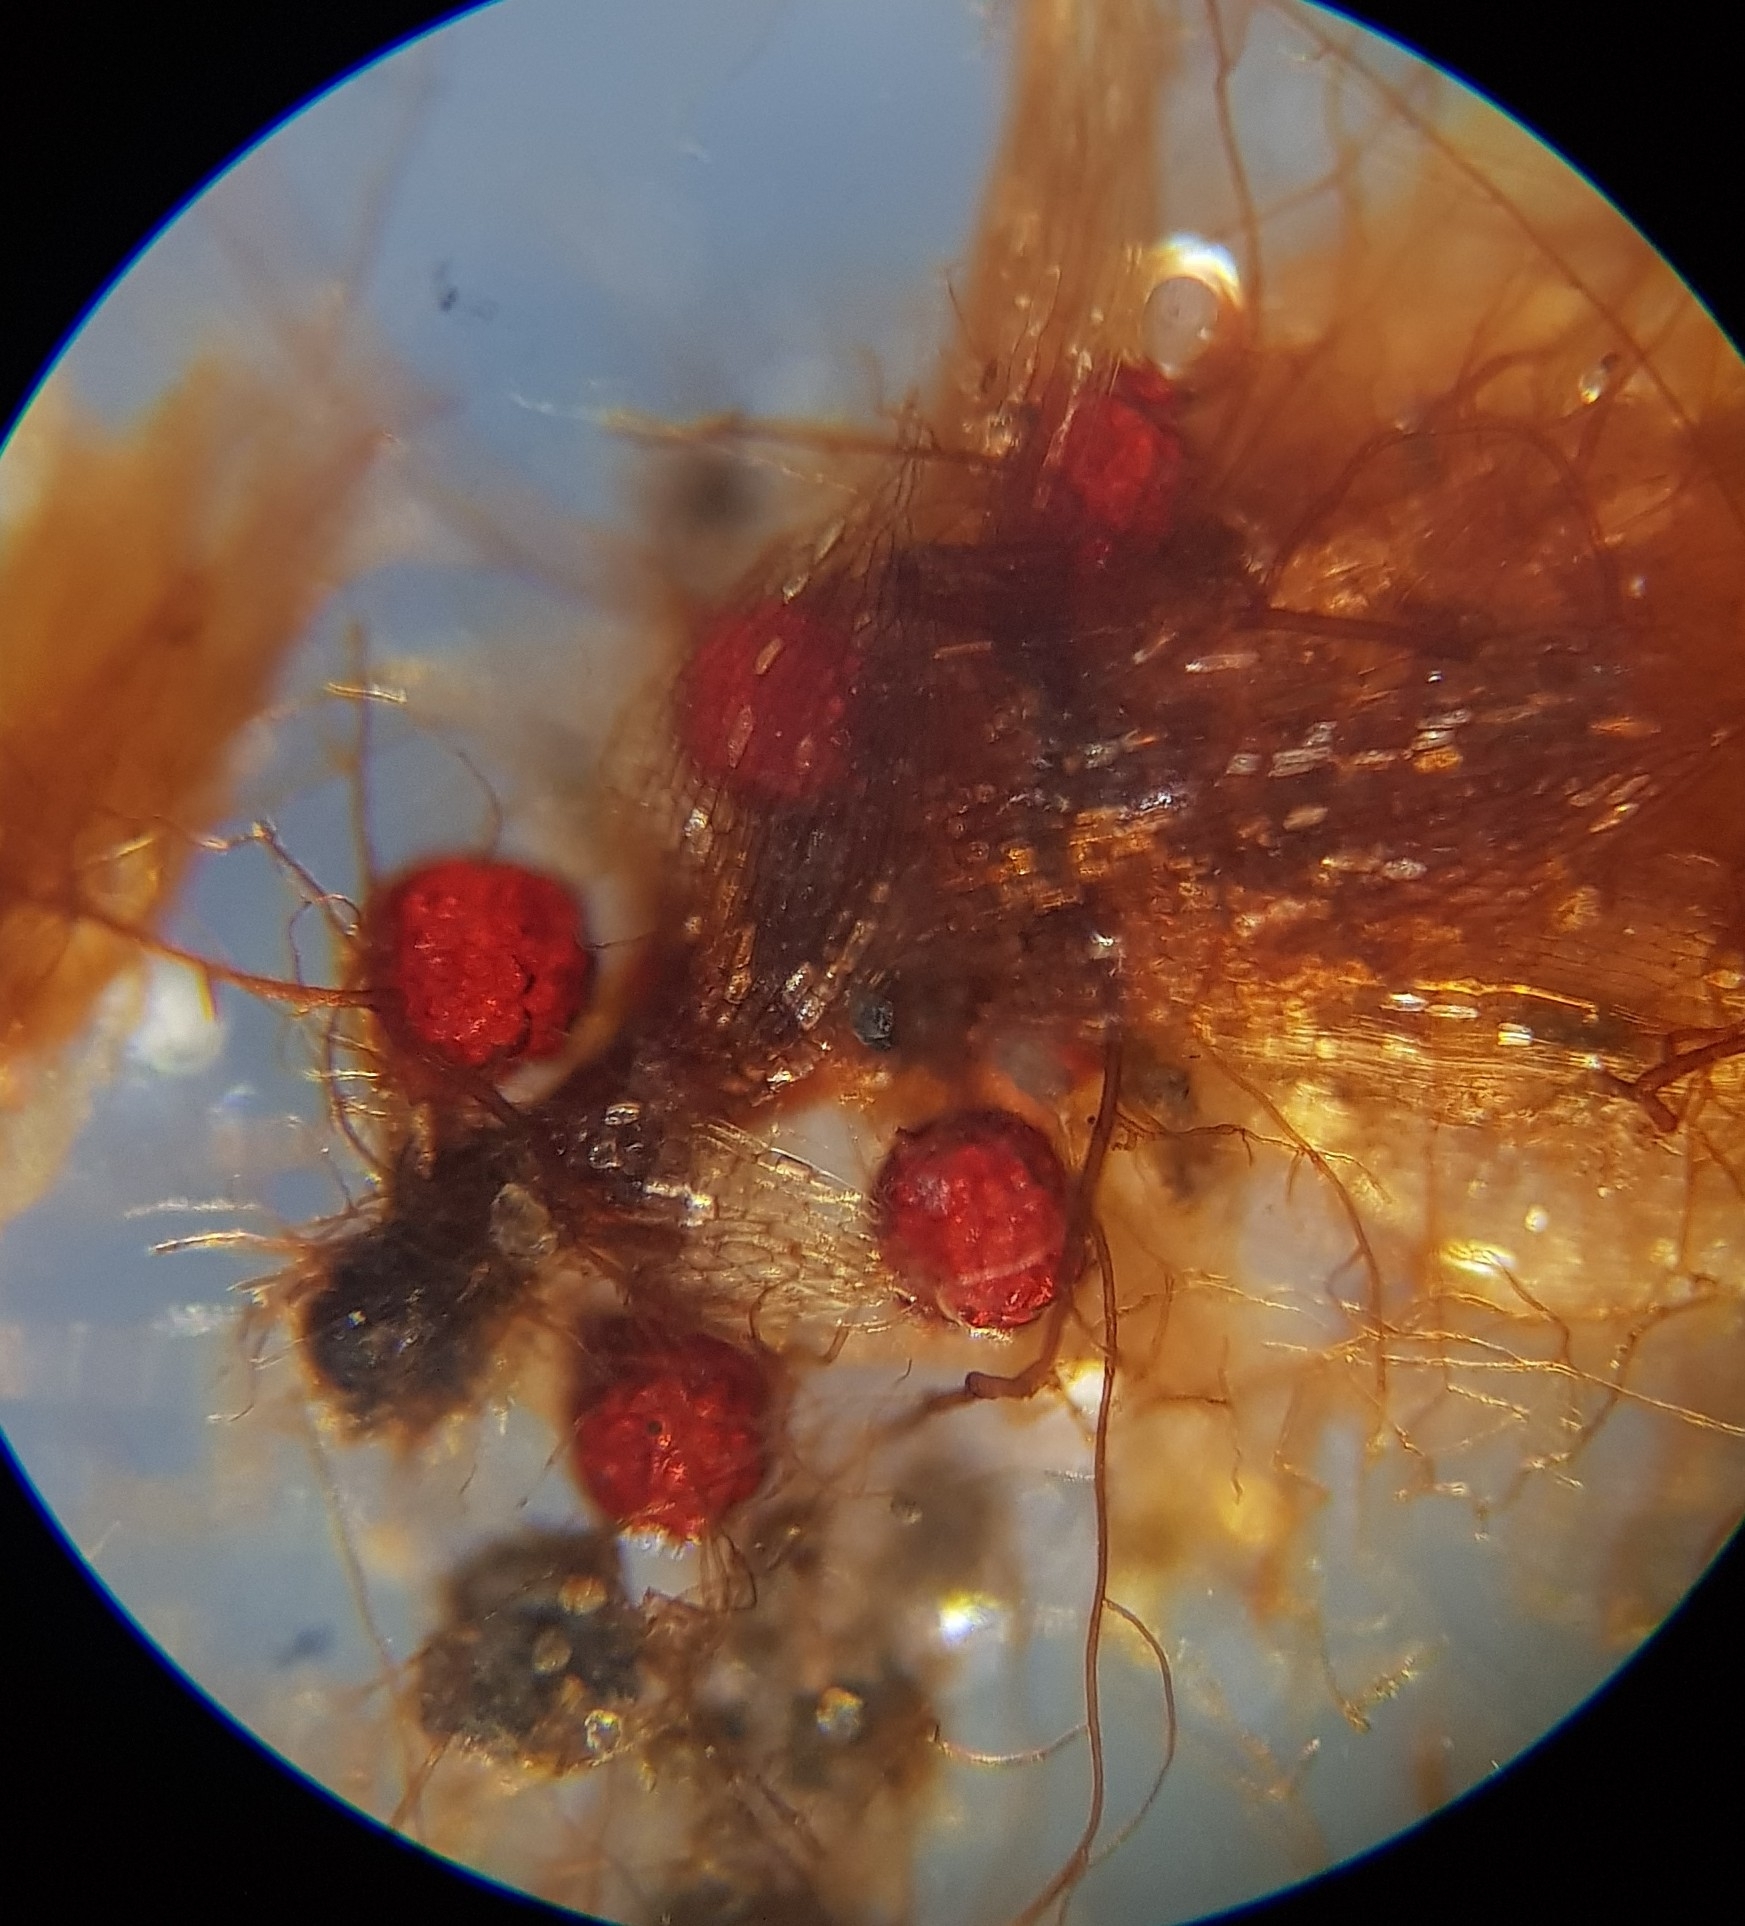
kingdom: Plantae
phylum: Bryophyta
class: Bryopsida
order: Bryales
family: Bryaceae
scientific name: Bryaceae
